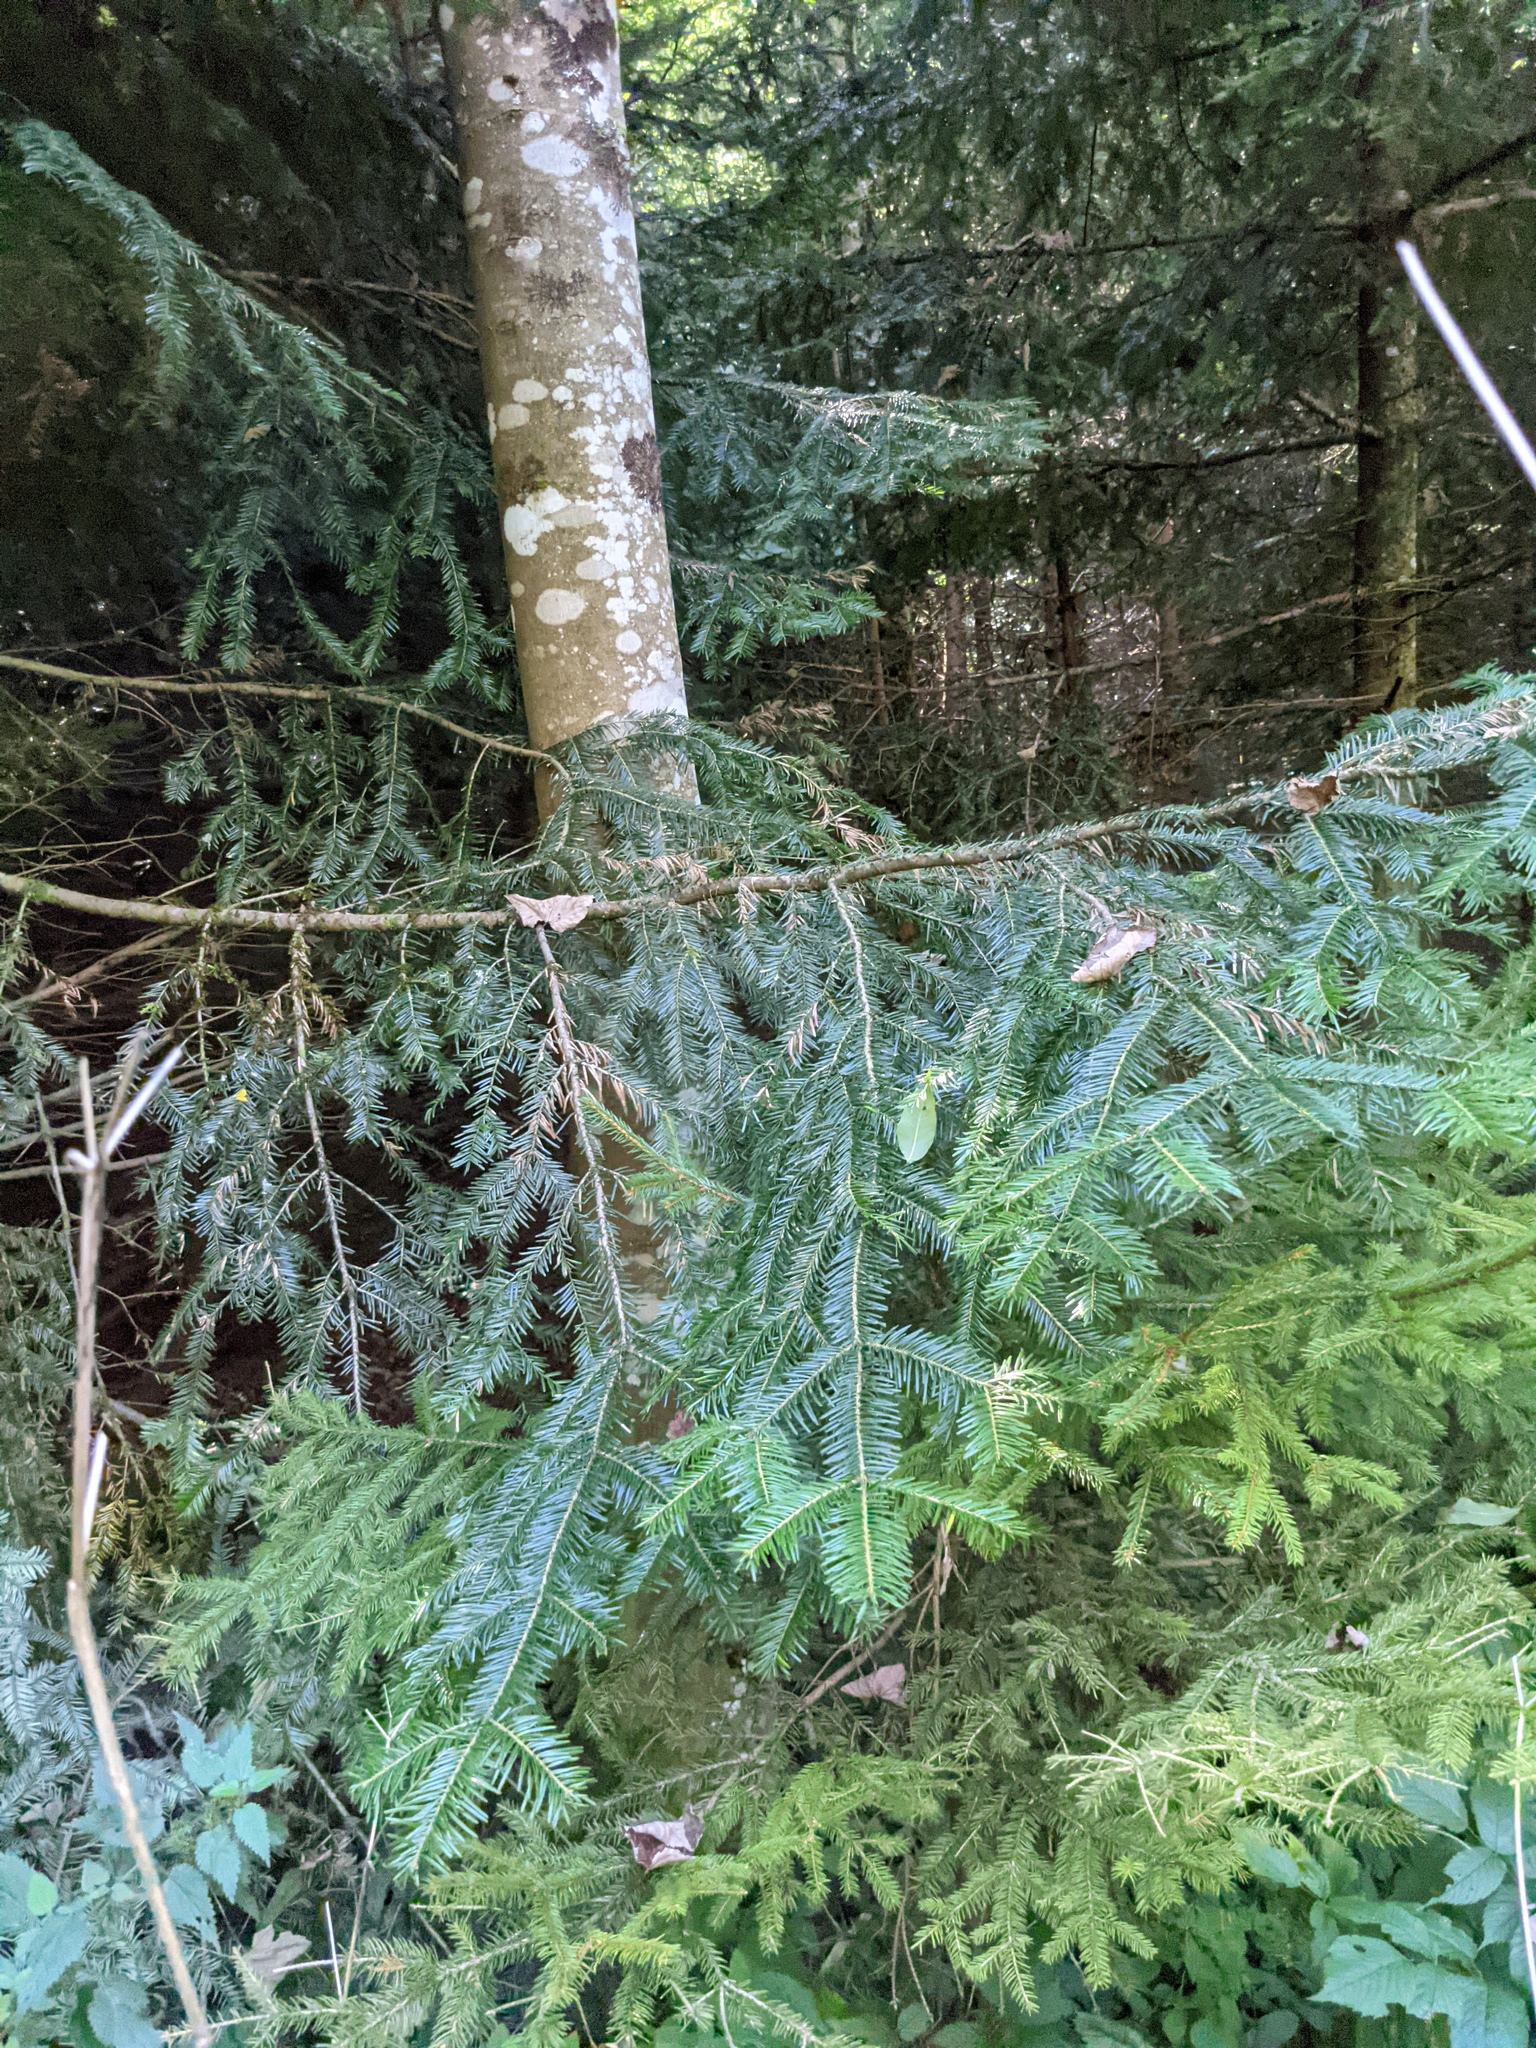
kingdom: Plantae
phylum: Tracheophyta
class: Pinopsida
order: Pinales
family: Pinaceae
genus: Abies
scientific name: Abies alba
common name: Silver fir
